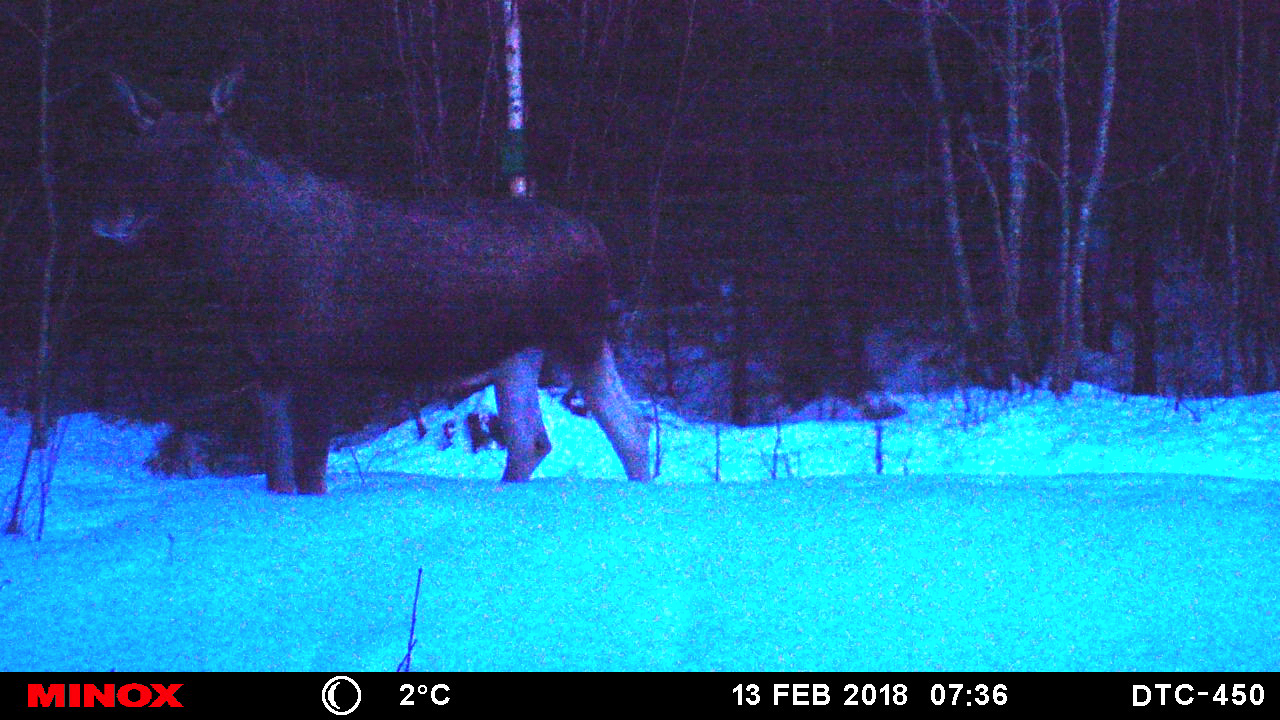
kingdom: Animalia
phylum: Chordata
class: Mammalia
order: Artiodactyla
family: Cervidae
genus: Alces
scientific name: Alces alces
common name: Moose
